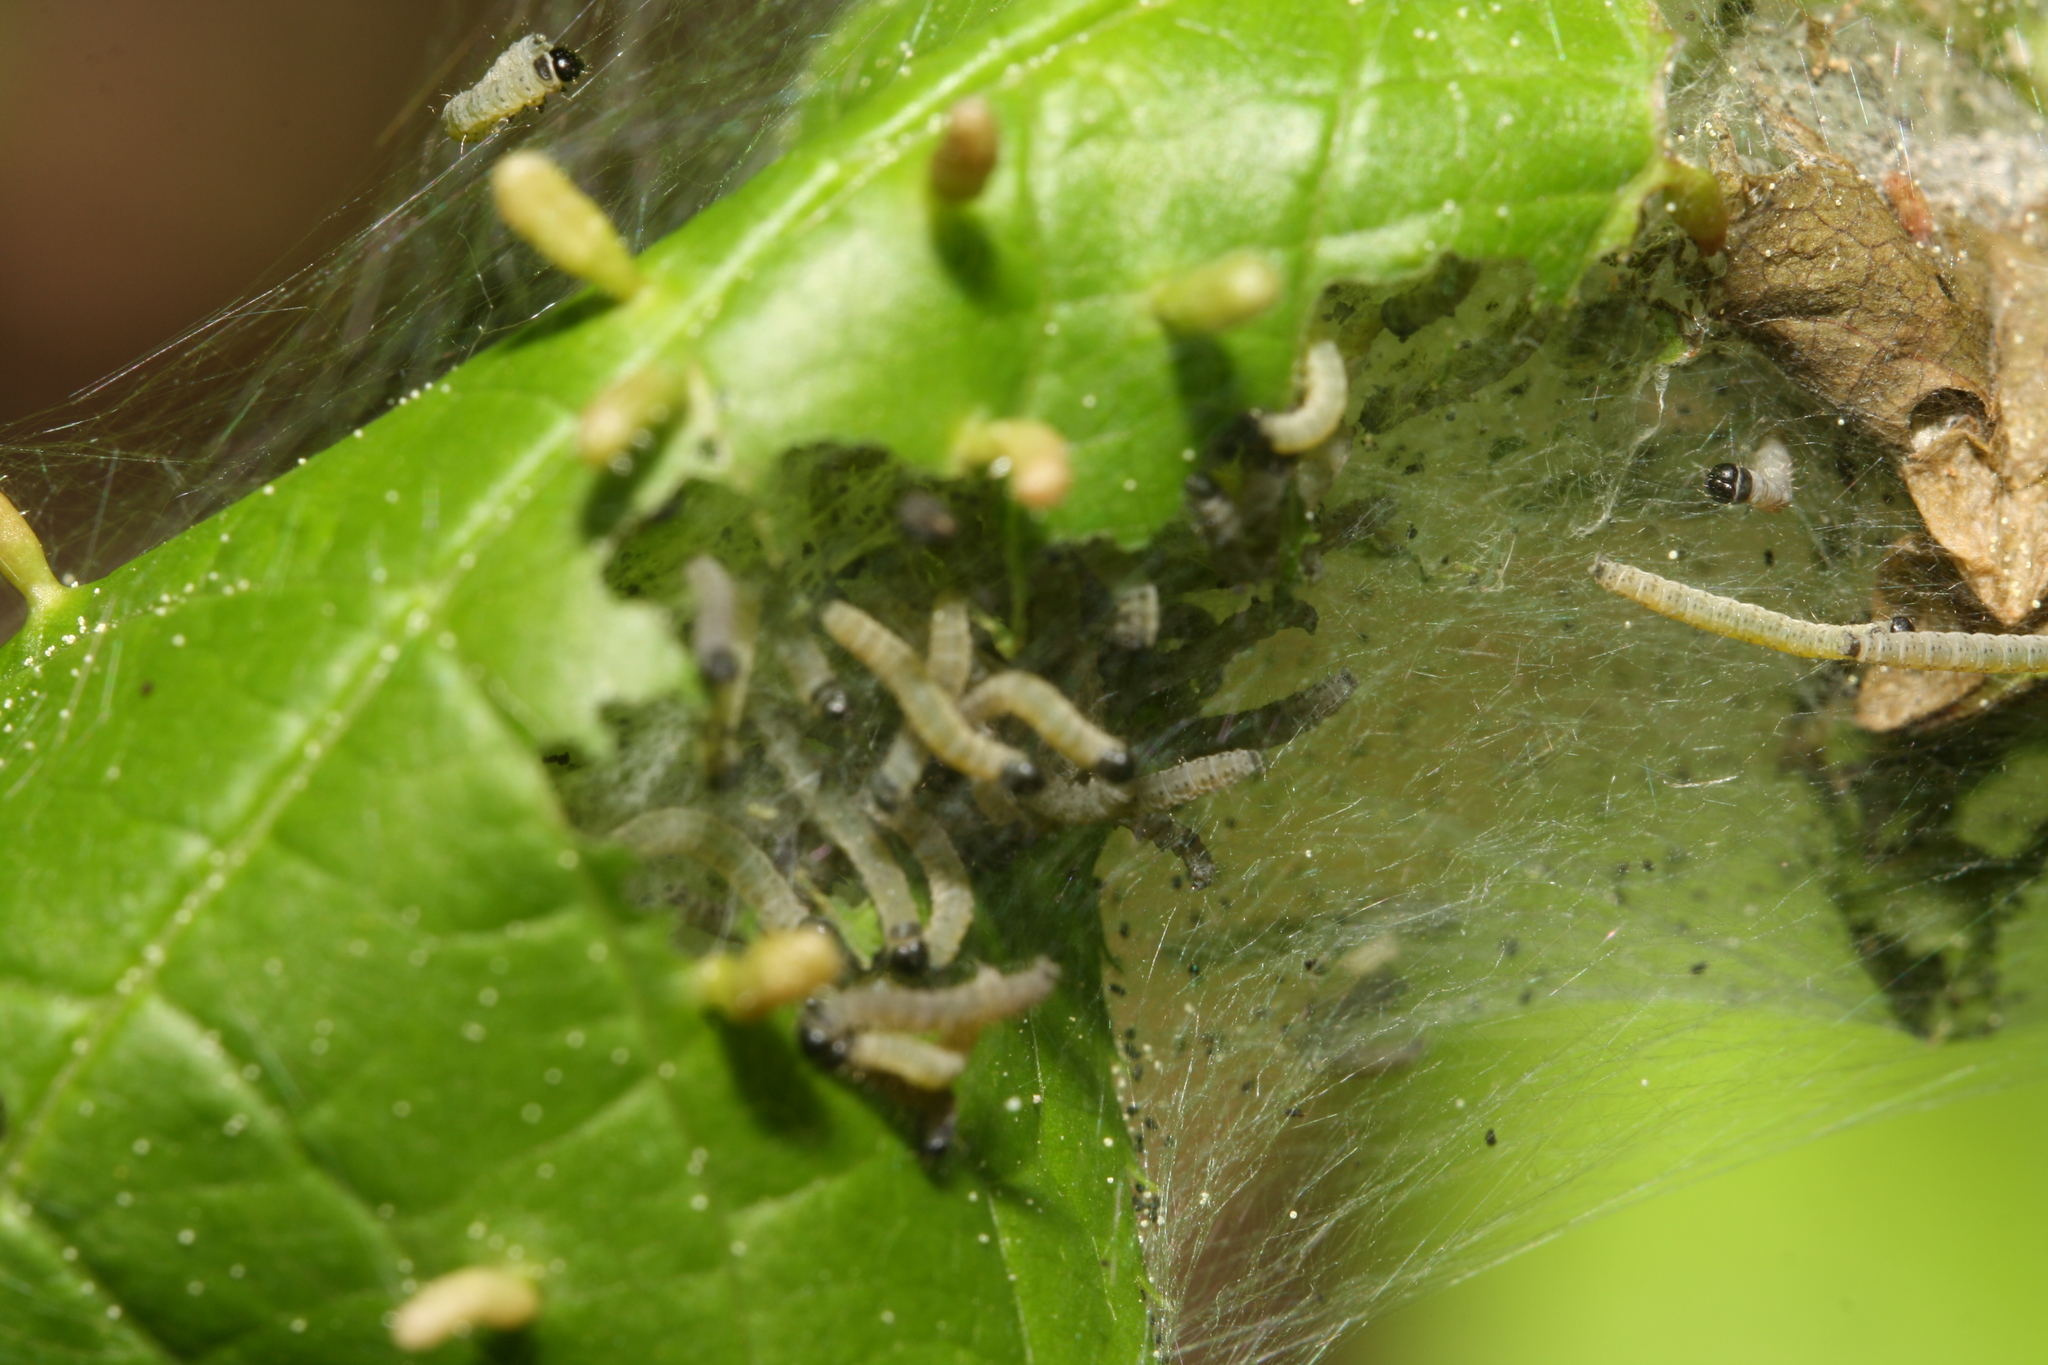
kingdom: Animalia
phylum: Arthropoda
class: Insecta
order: Lepidoptera
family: Yponomeutidae
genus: Yponomeuta
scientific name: Yponomeuta evonymella
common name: Bird-cherry ermine
